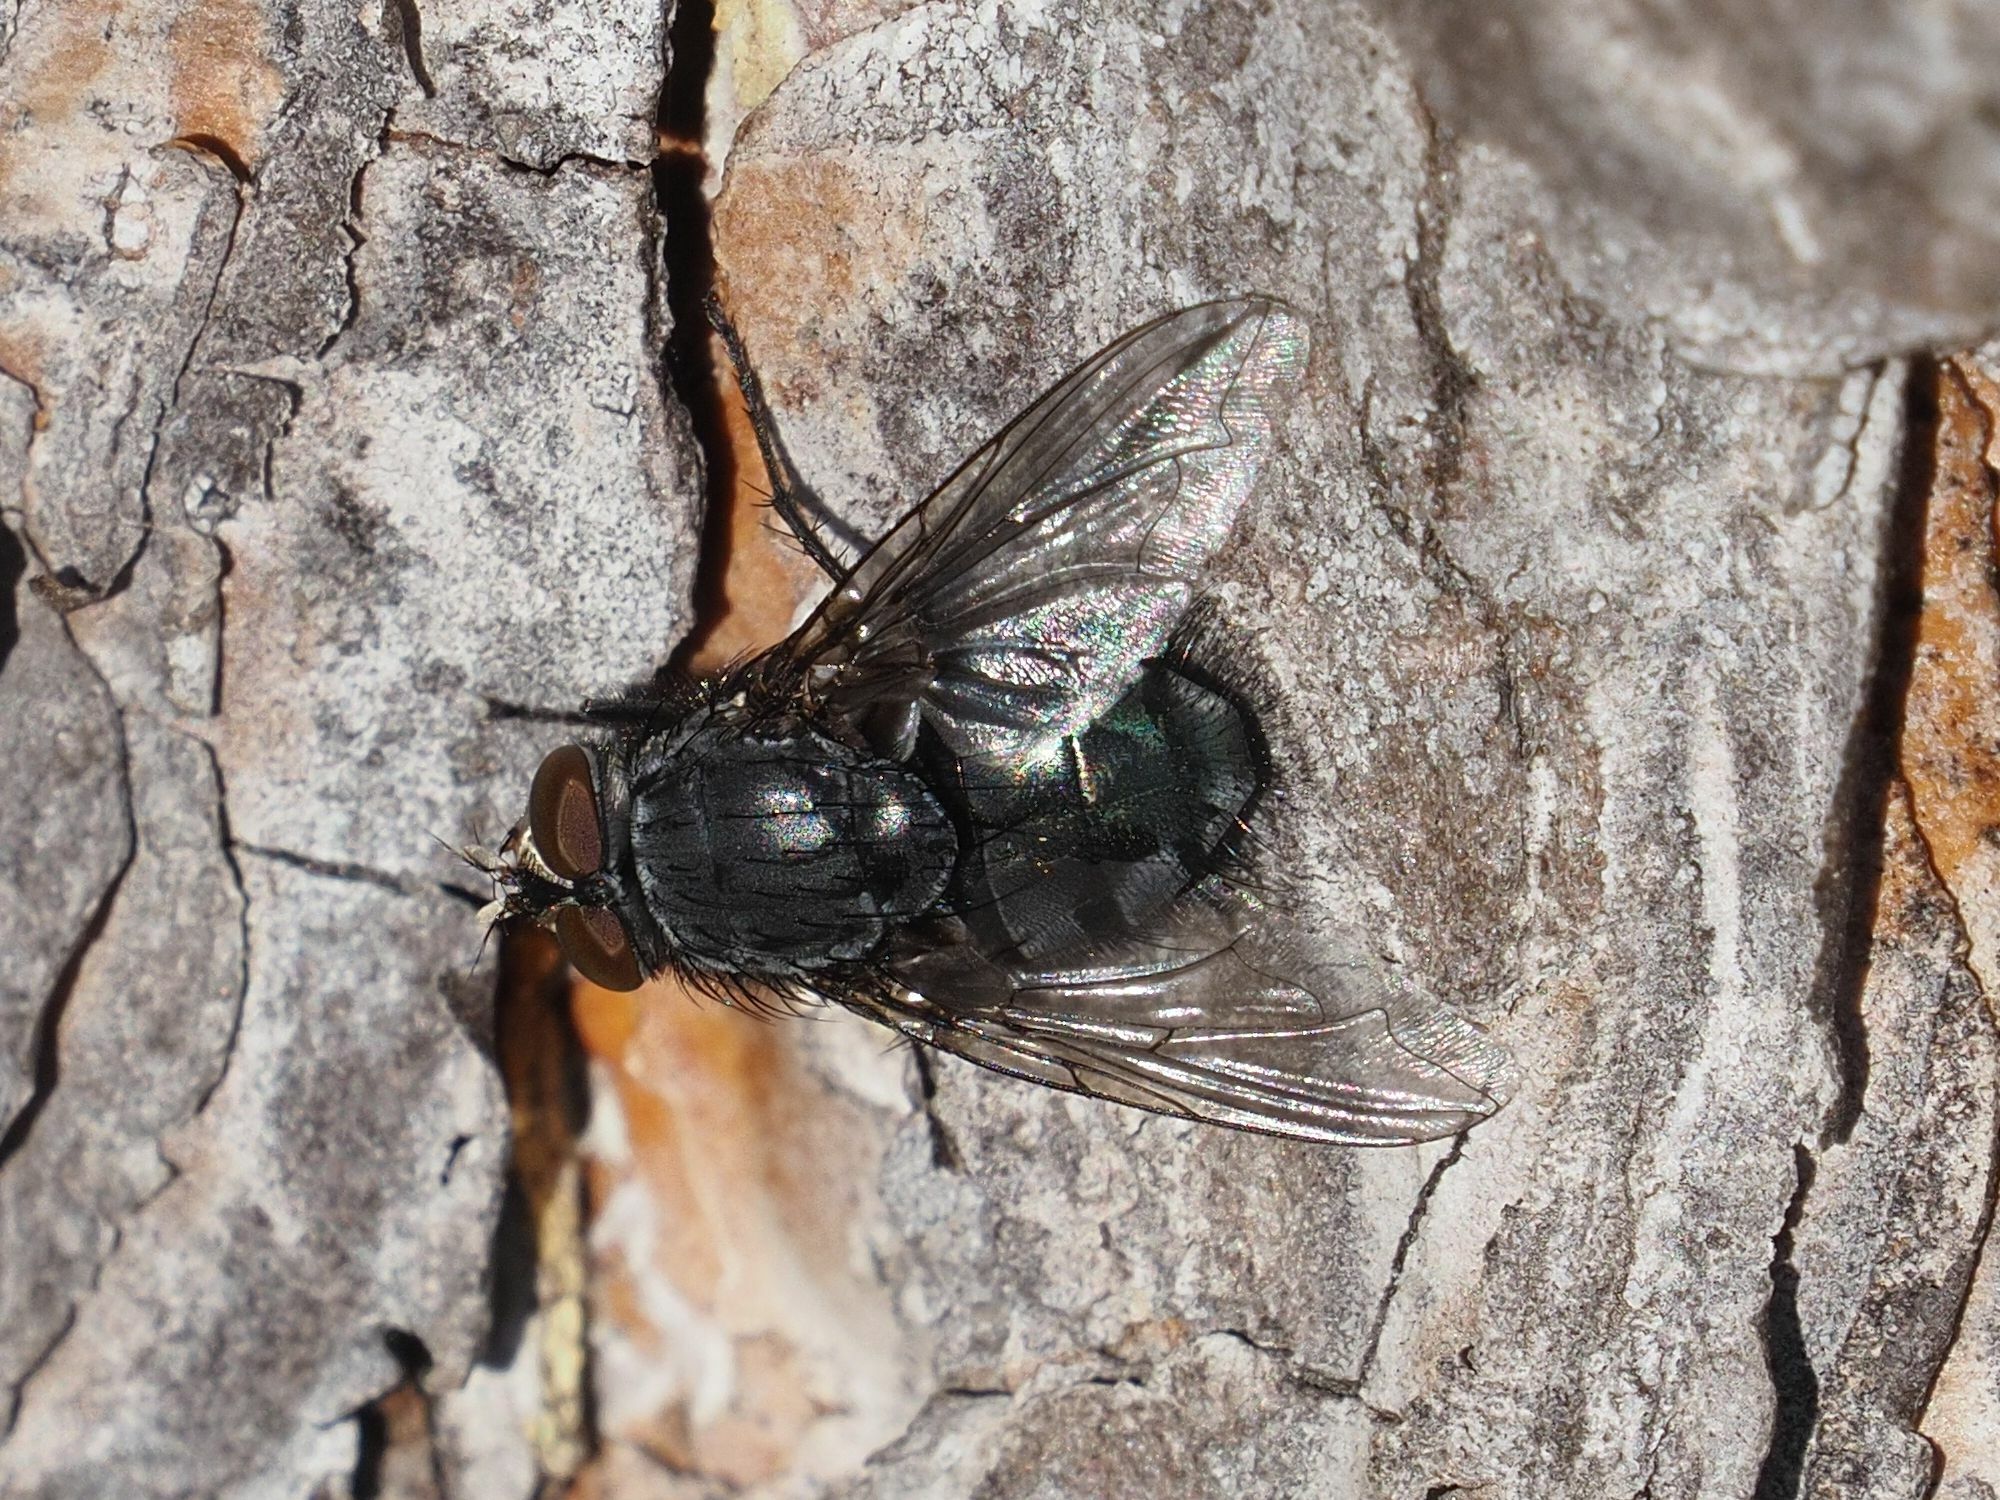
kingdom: Animalia
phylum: Arthropoda
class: Insecta
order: Diptera
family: Calliphoridae
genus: Calliphora
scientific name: Calliphora vicina
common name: Common blow flie
